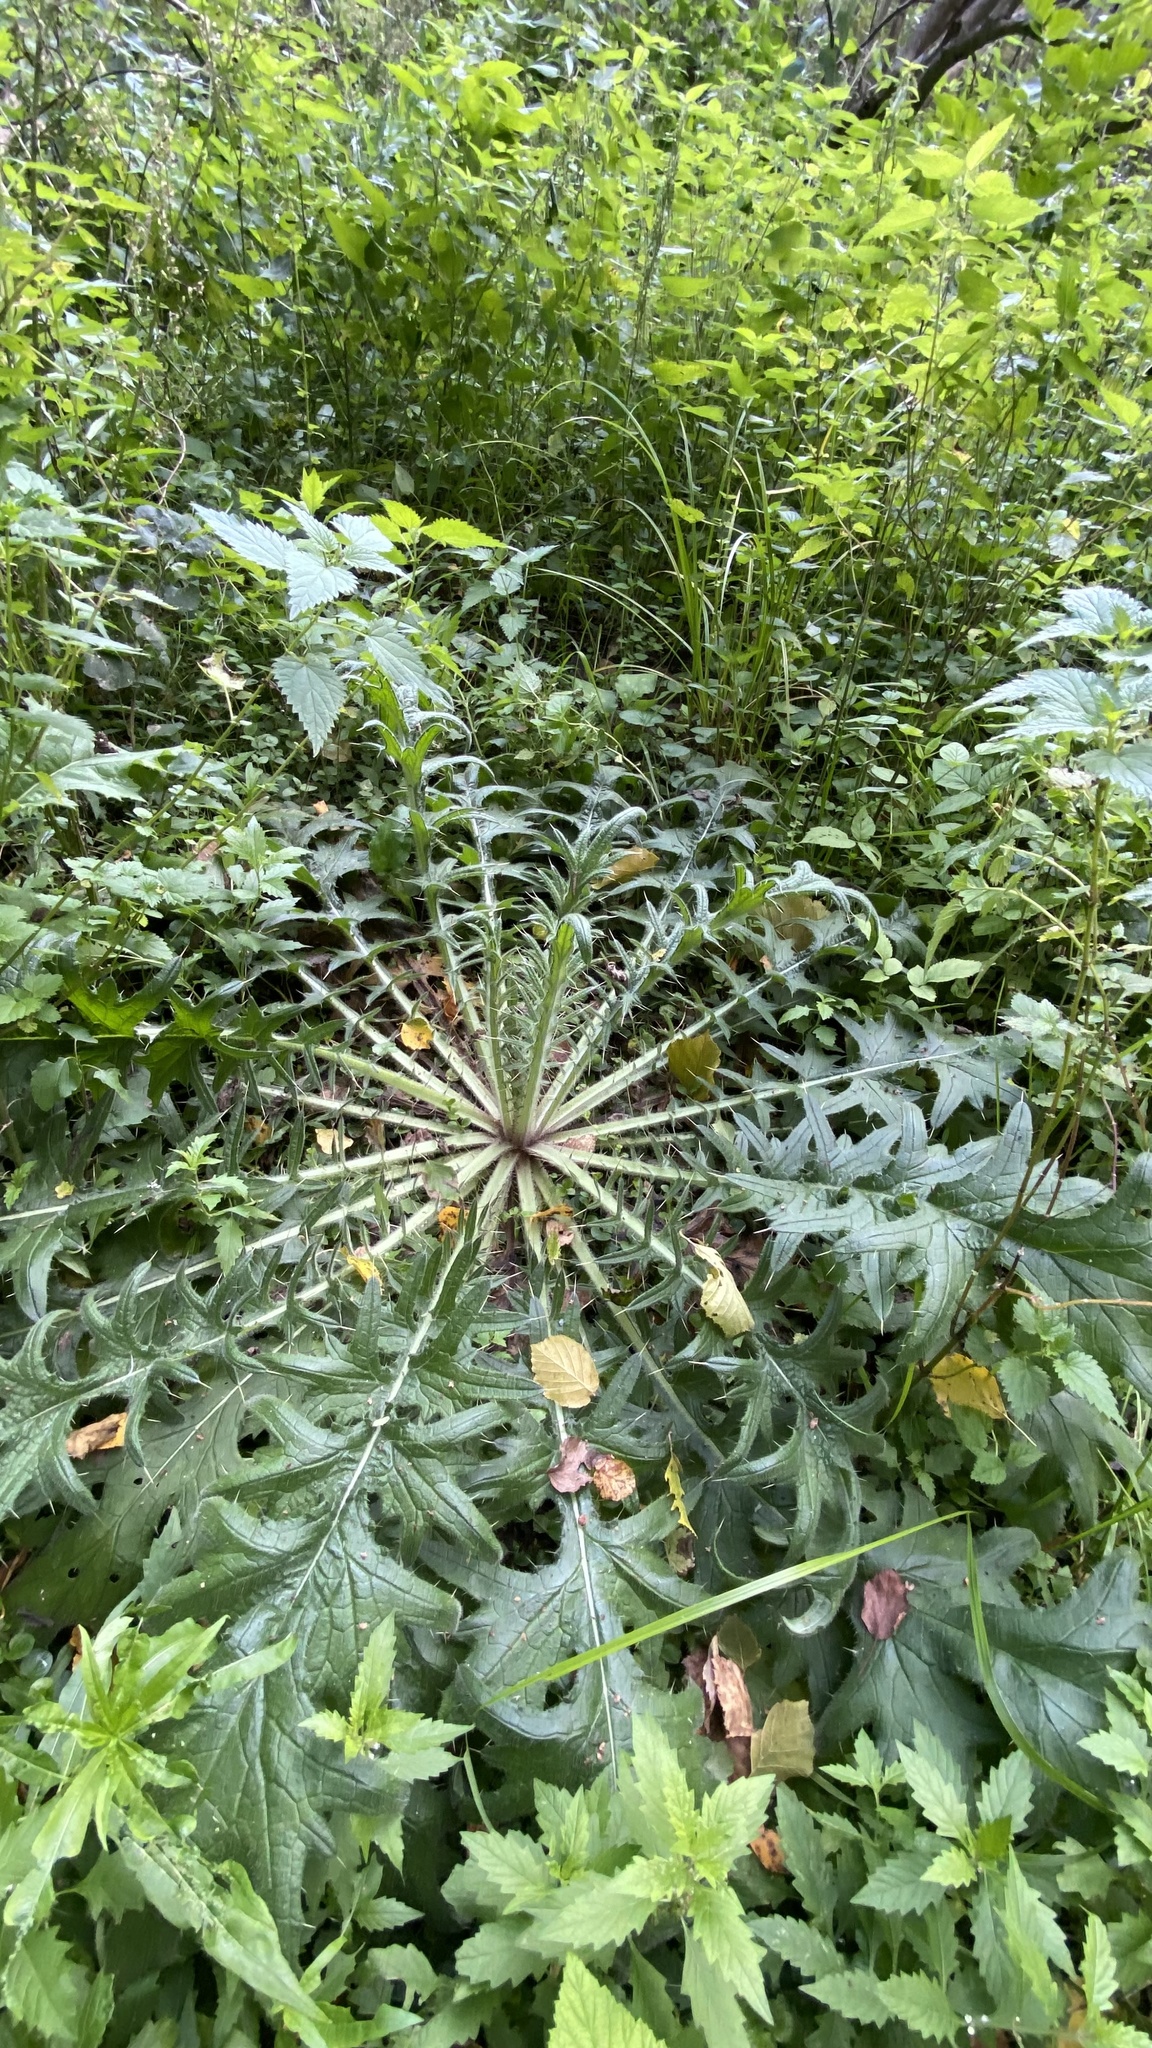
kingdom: Plantae
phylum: Tracheophyta
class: Magnoliopsida
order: Asterales
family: Asteraceae
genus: Cirsium
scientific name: Cirsium vulgare
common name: Bull thistle
